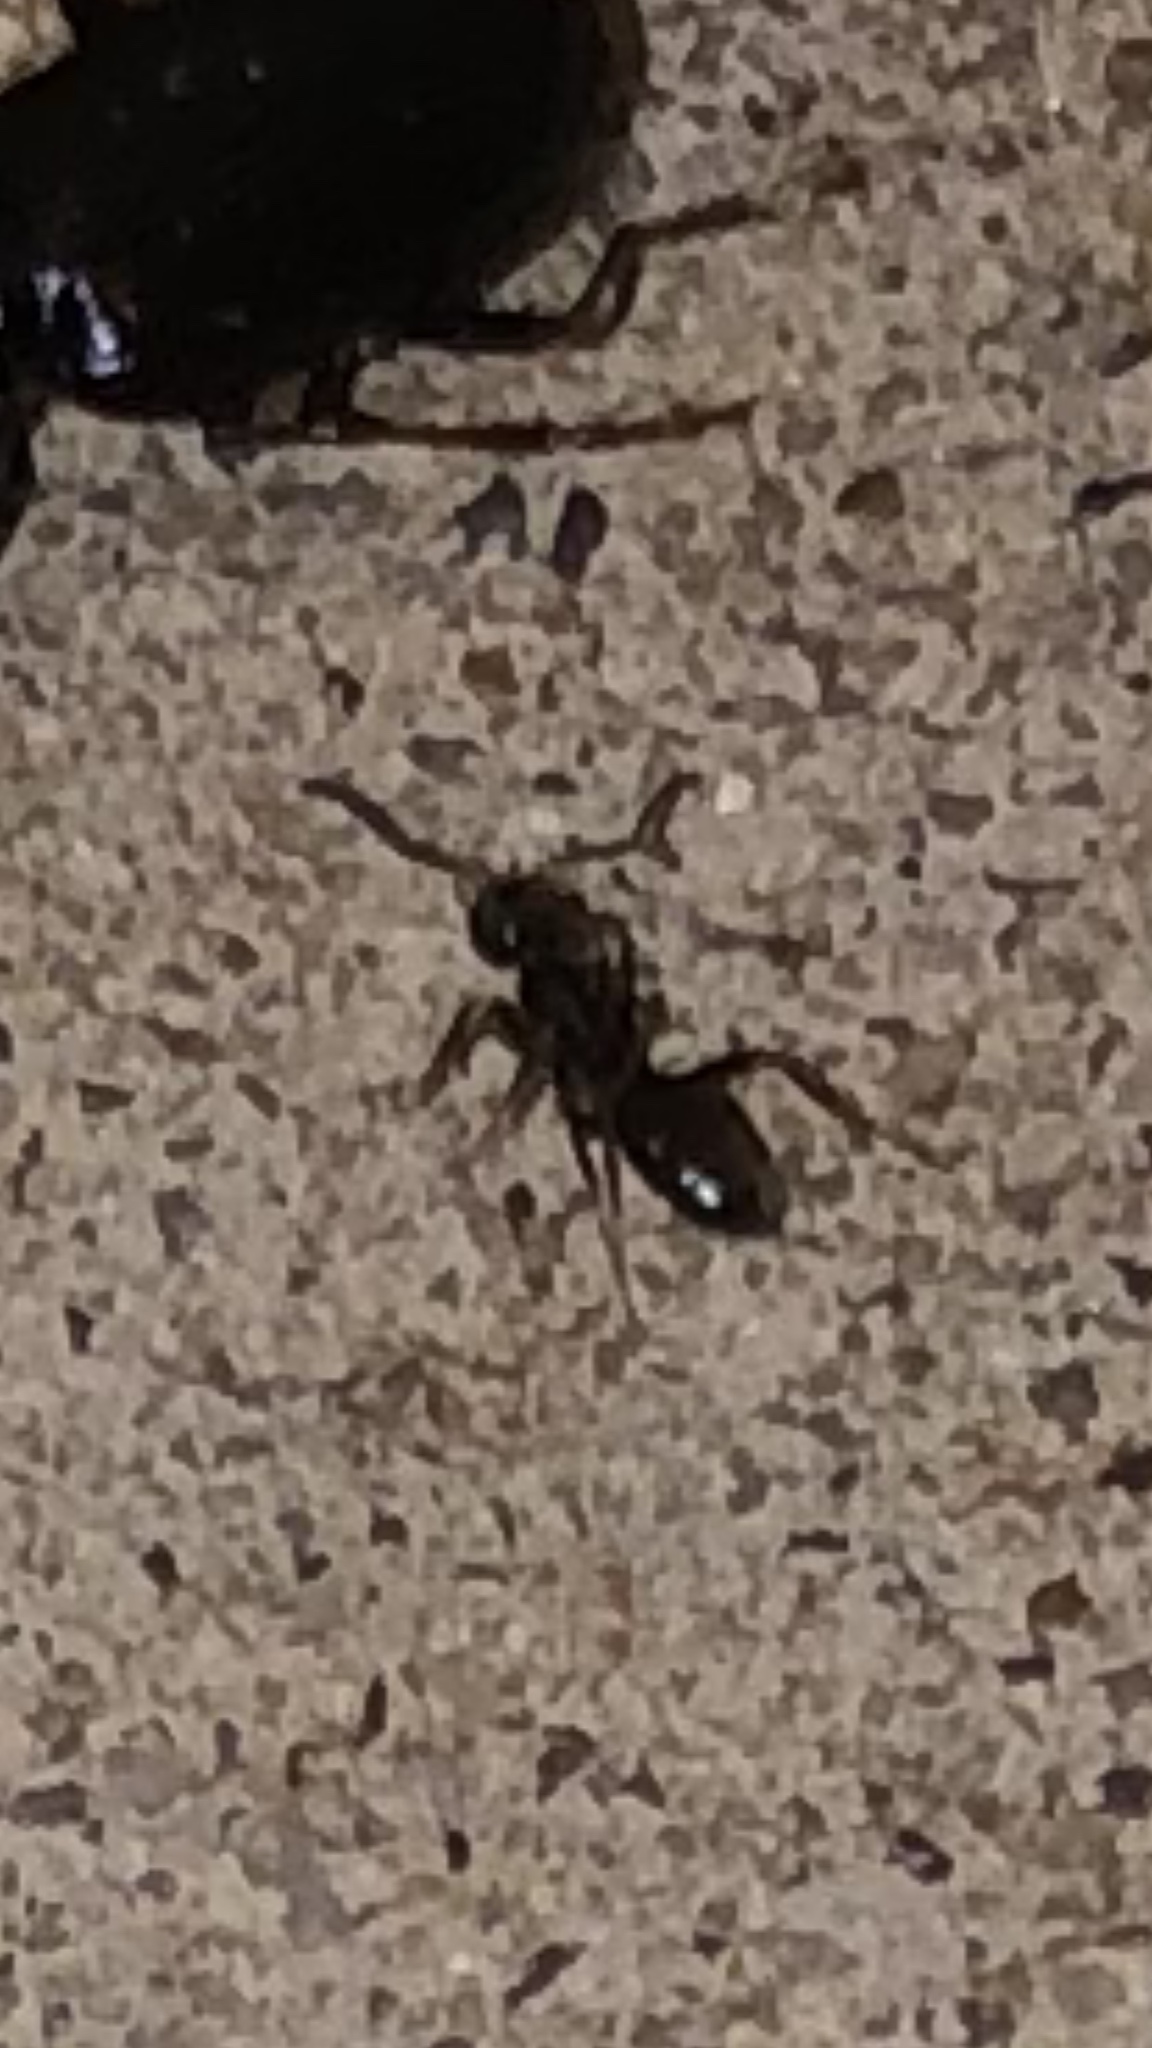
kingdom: Animalia
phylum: Arthropoda
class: Insecta
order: Hymenoptera
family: Formicidae
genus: Tapinoma
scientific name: Tapinoma sessile
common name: Odorous house ant
